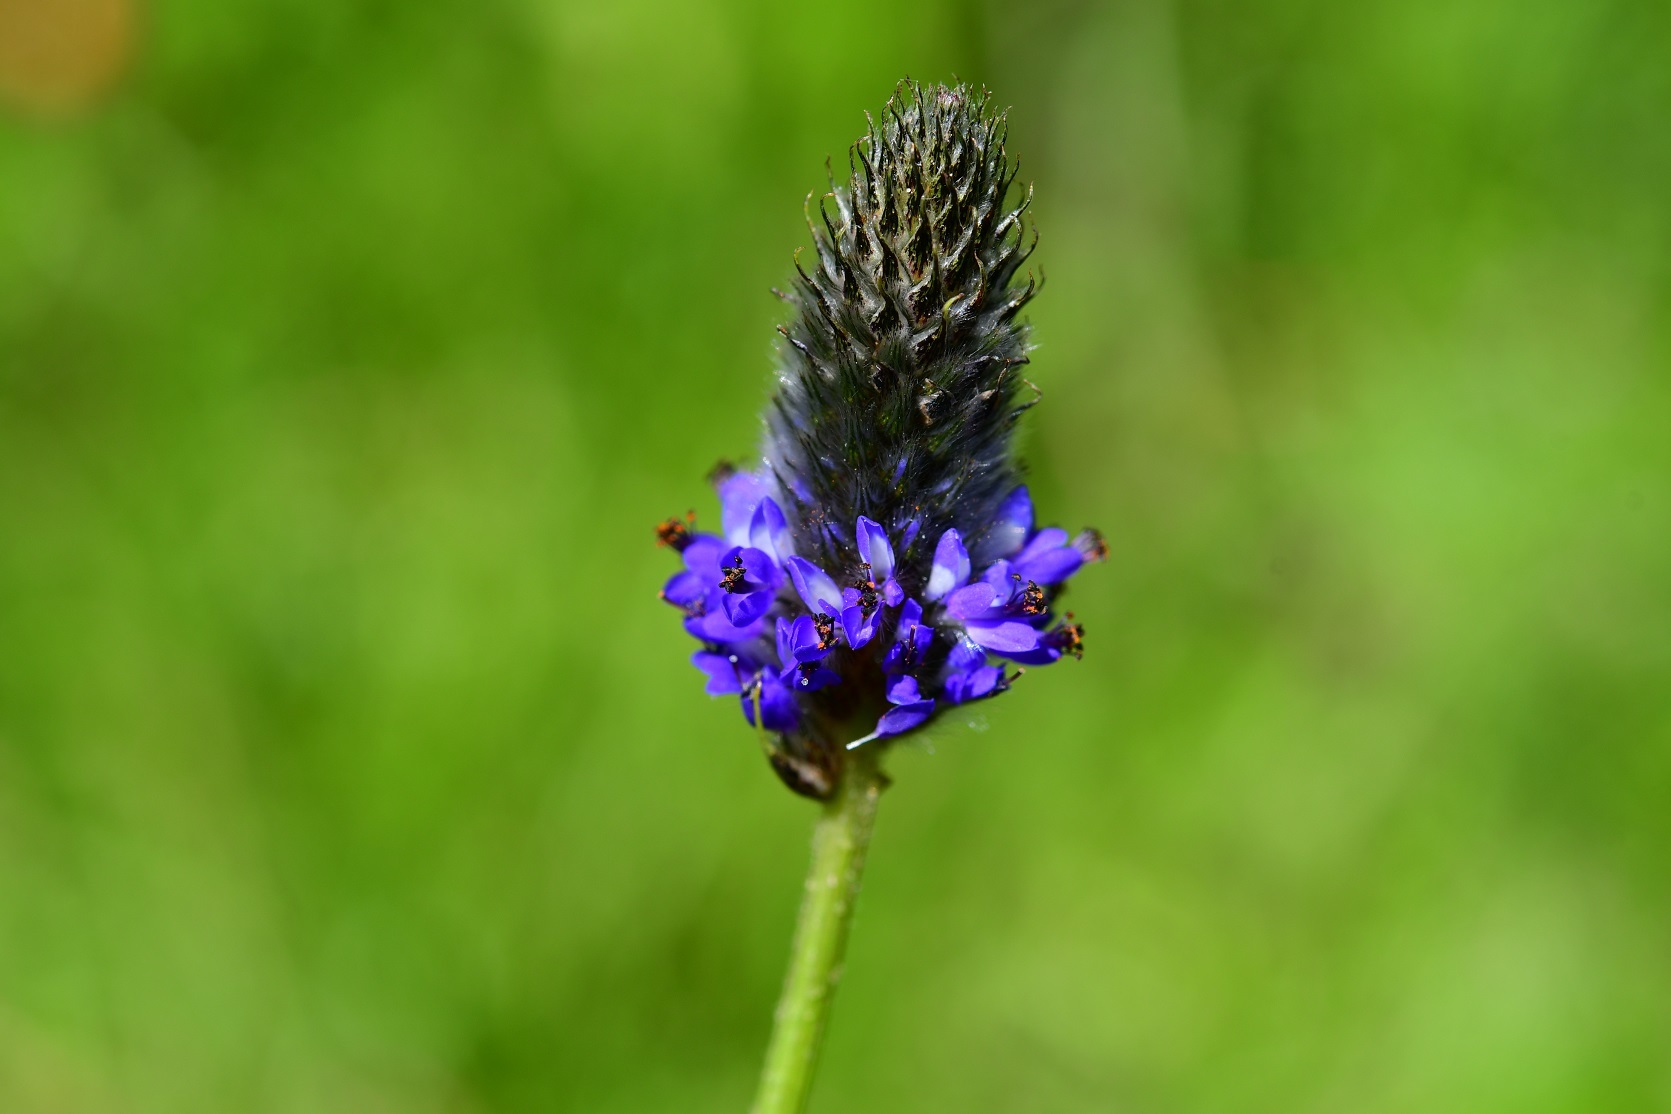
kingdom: Plantae
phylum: Tracheophyta
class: Magnoliopsida
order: Fabales
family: Fabaceae
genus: Dalea
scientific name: Dalea leporina
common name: Foxtail dalea
